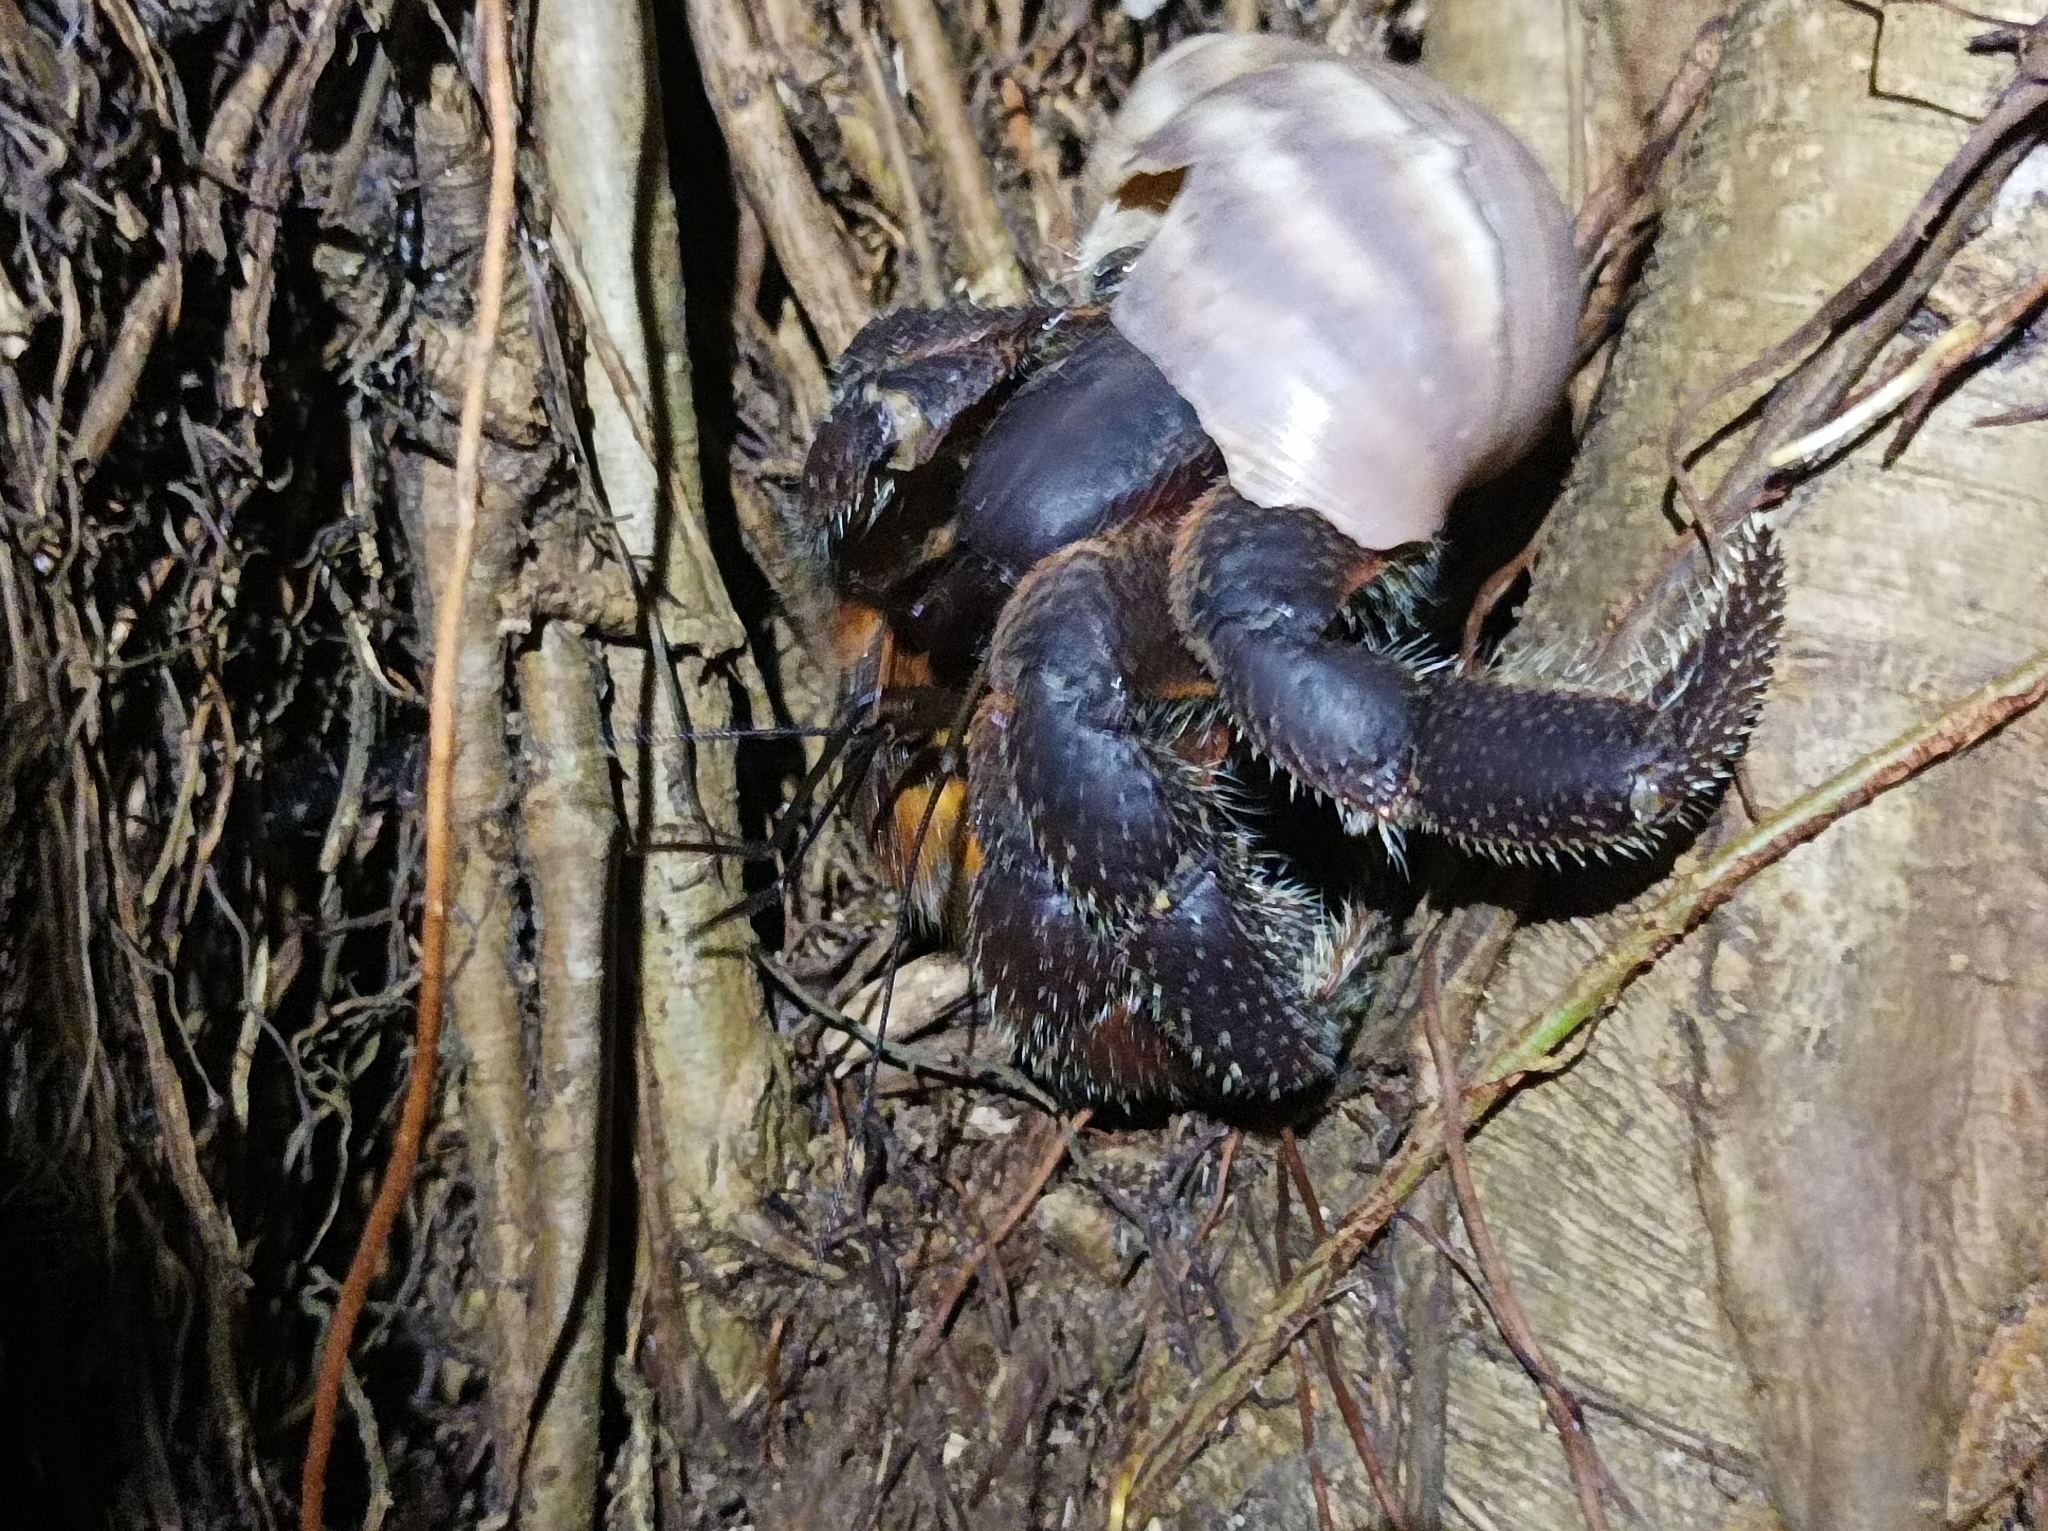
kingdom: Animalia
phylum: Arthropoda
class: Malacostraca
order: Decapoda
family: Coenobitidae
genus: Coenobita
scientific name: Coenobita spinosus
